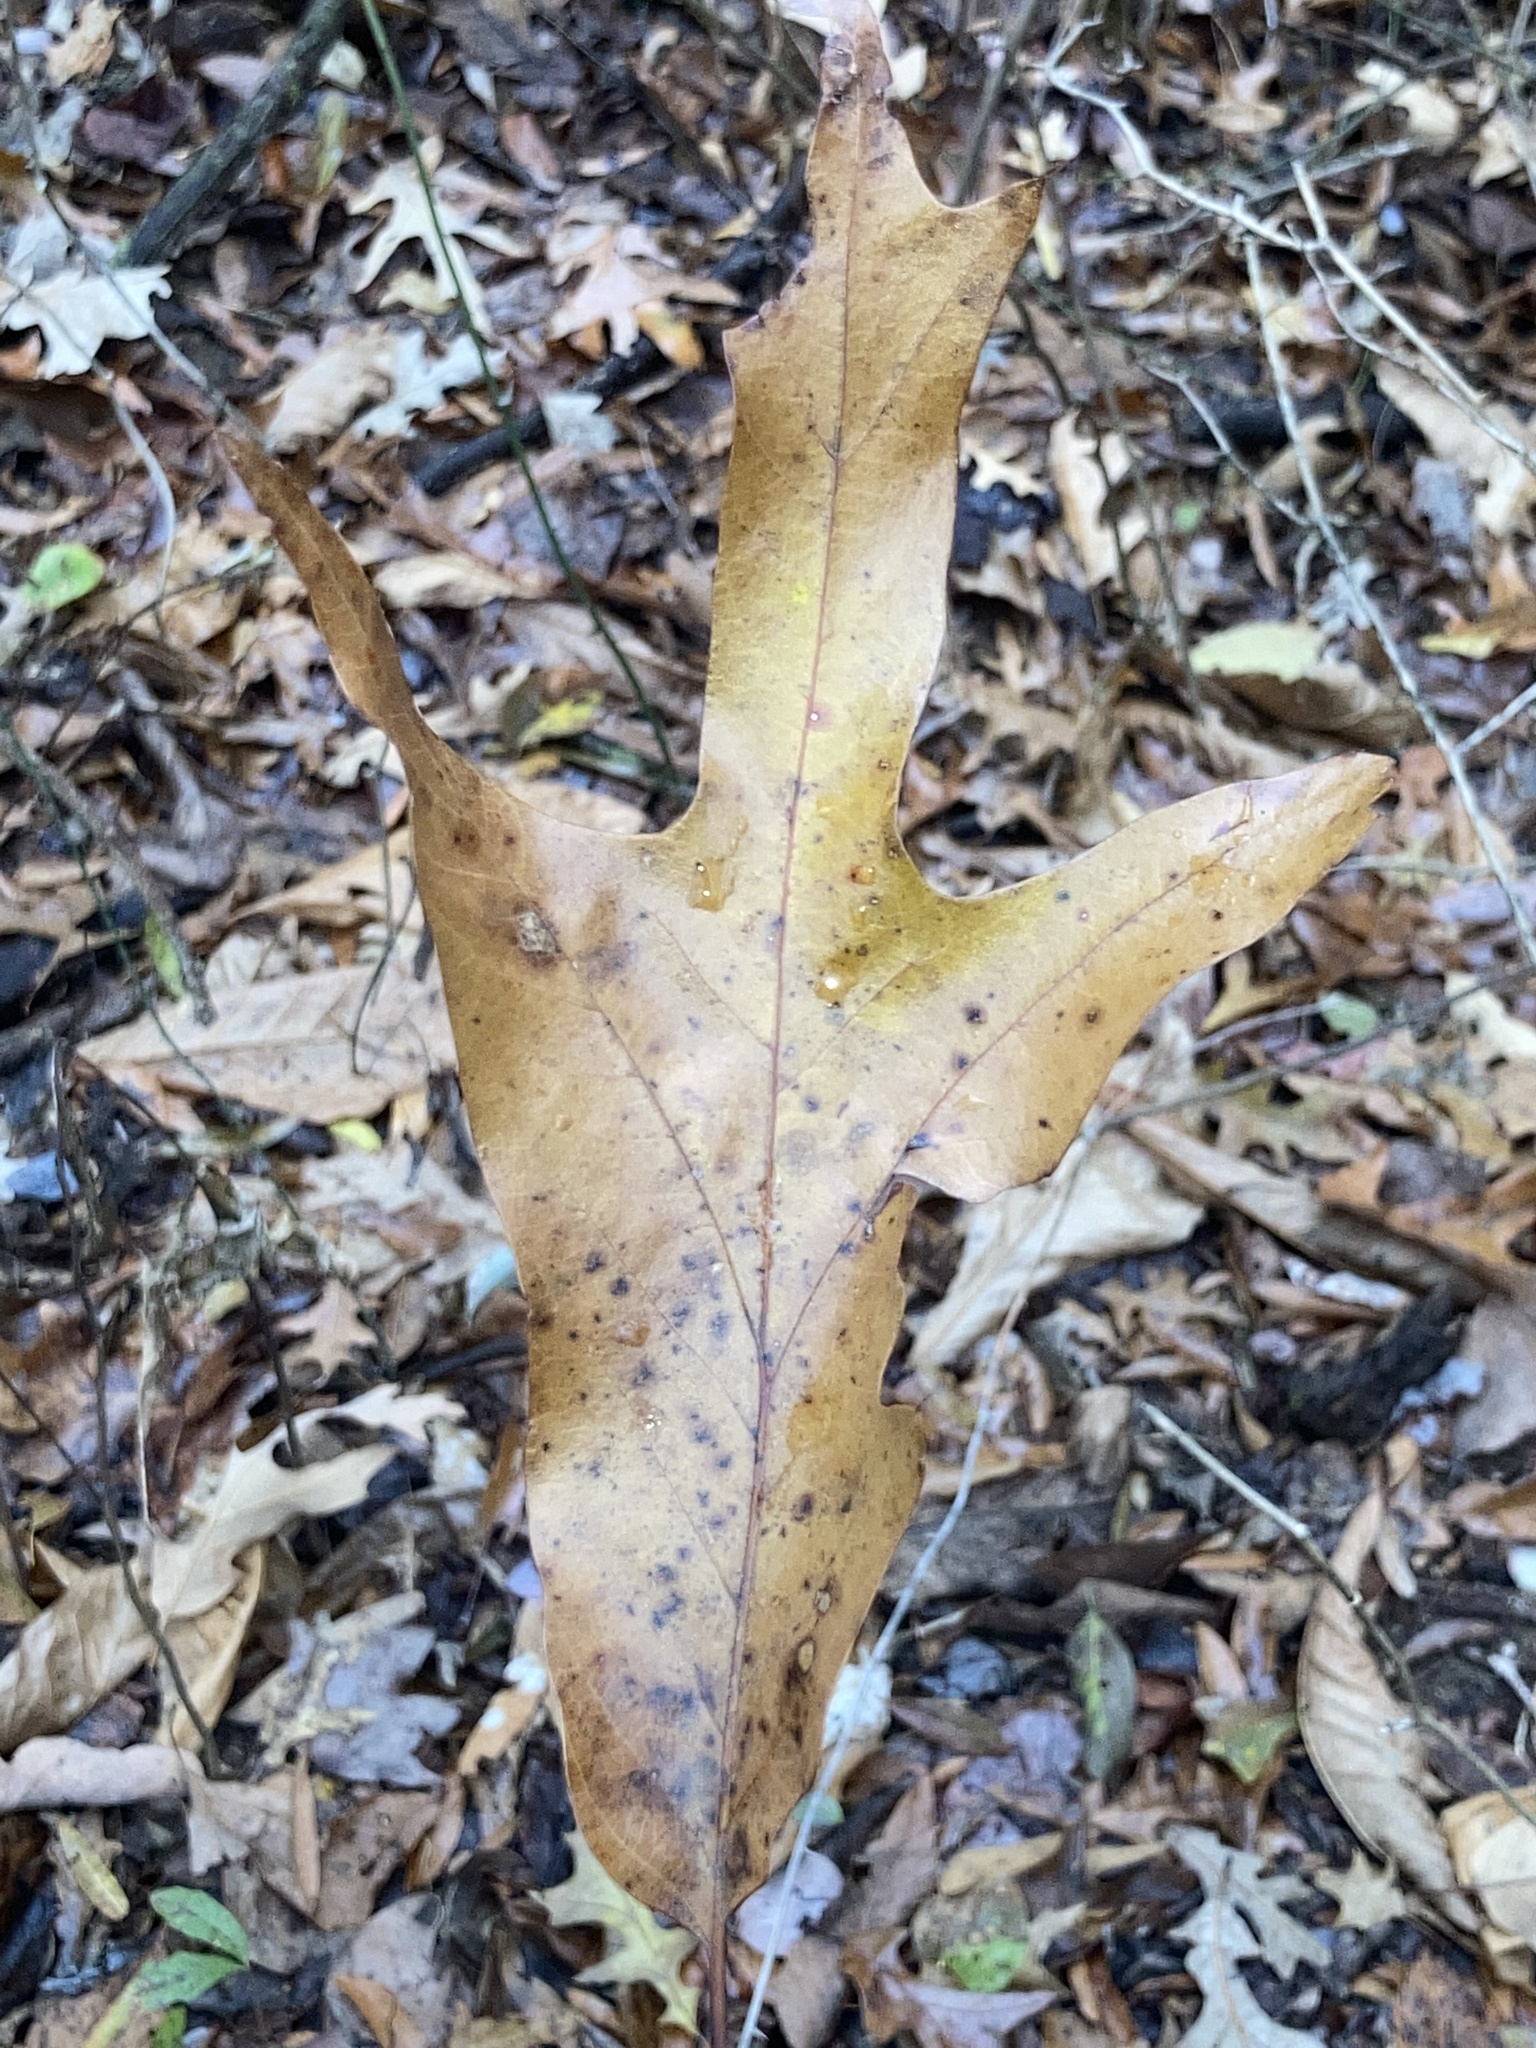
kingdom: Plantae
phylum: Tracheophyta
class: Magnoliopsida
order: Fagales
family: Fagaceae
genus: Quercus
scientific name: Quercus falcata
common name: Southern red oak
